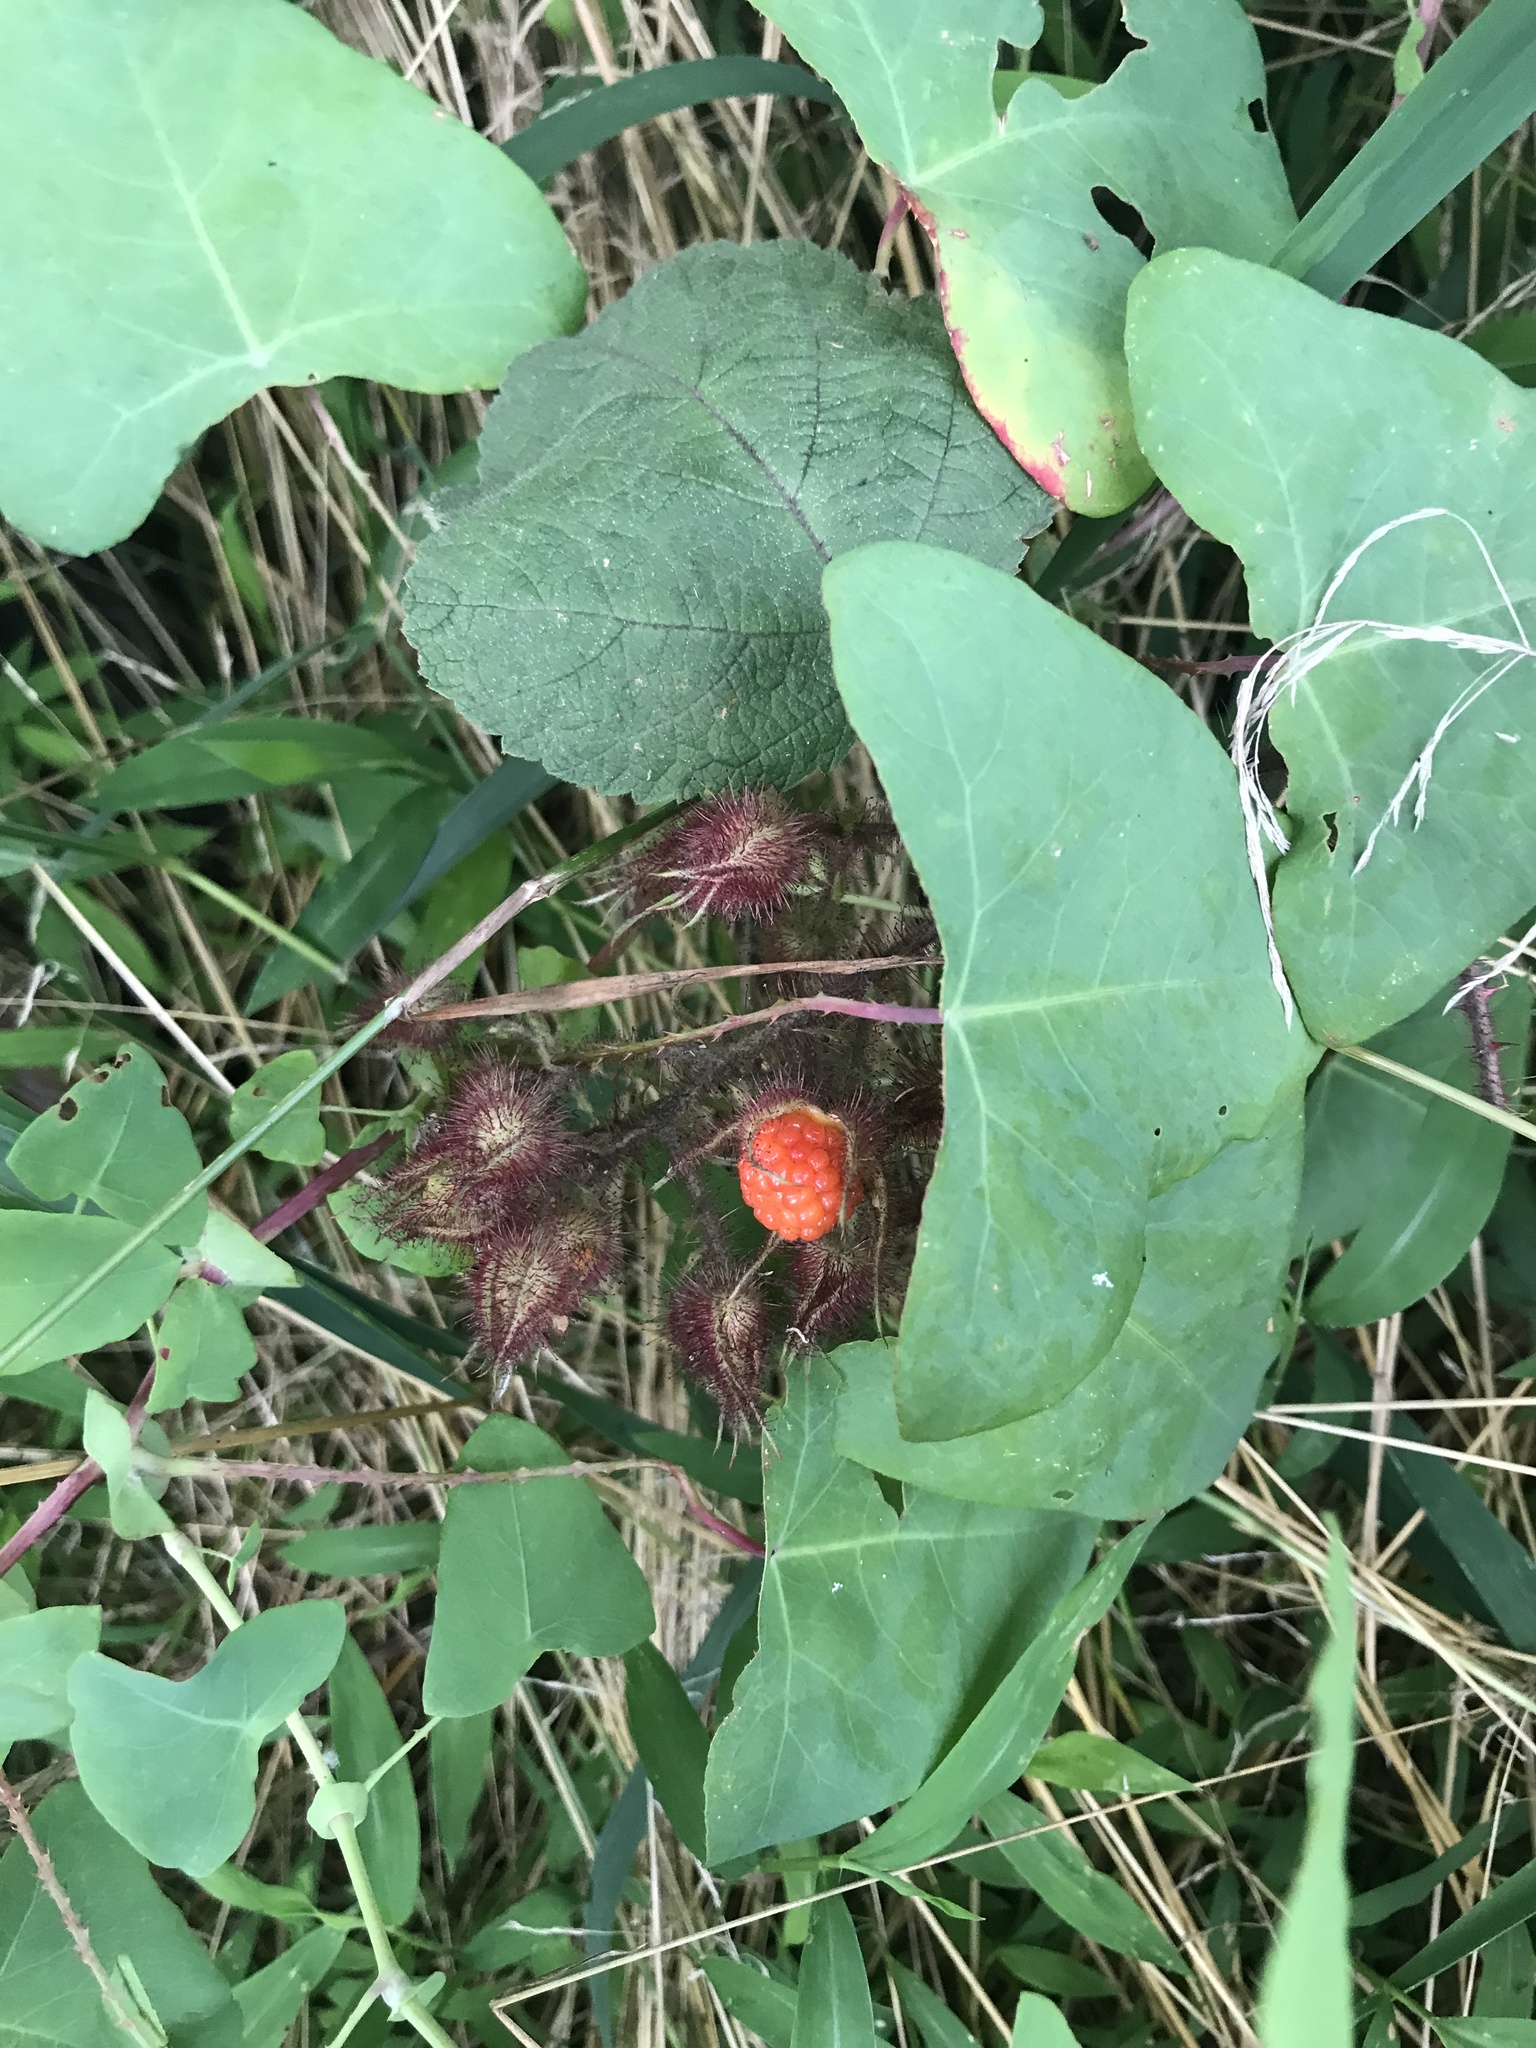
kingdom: Plantae
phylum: Tracheophyta
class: Magnoliopsida
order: Rosales
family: Rosaceae
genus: Rubus
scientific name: Rubus phoenicolasius
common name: Japanese wineberry
